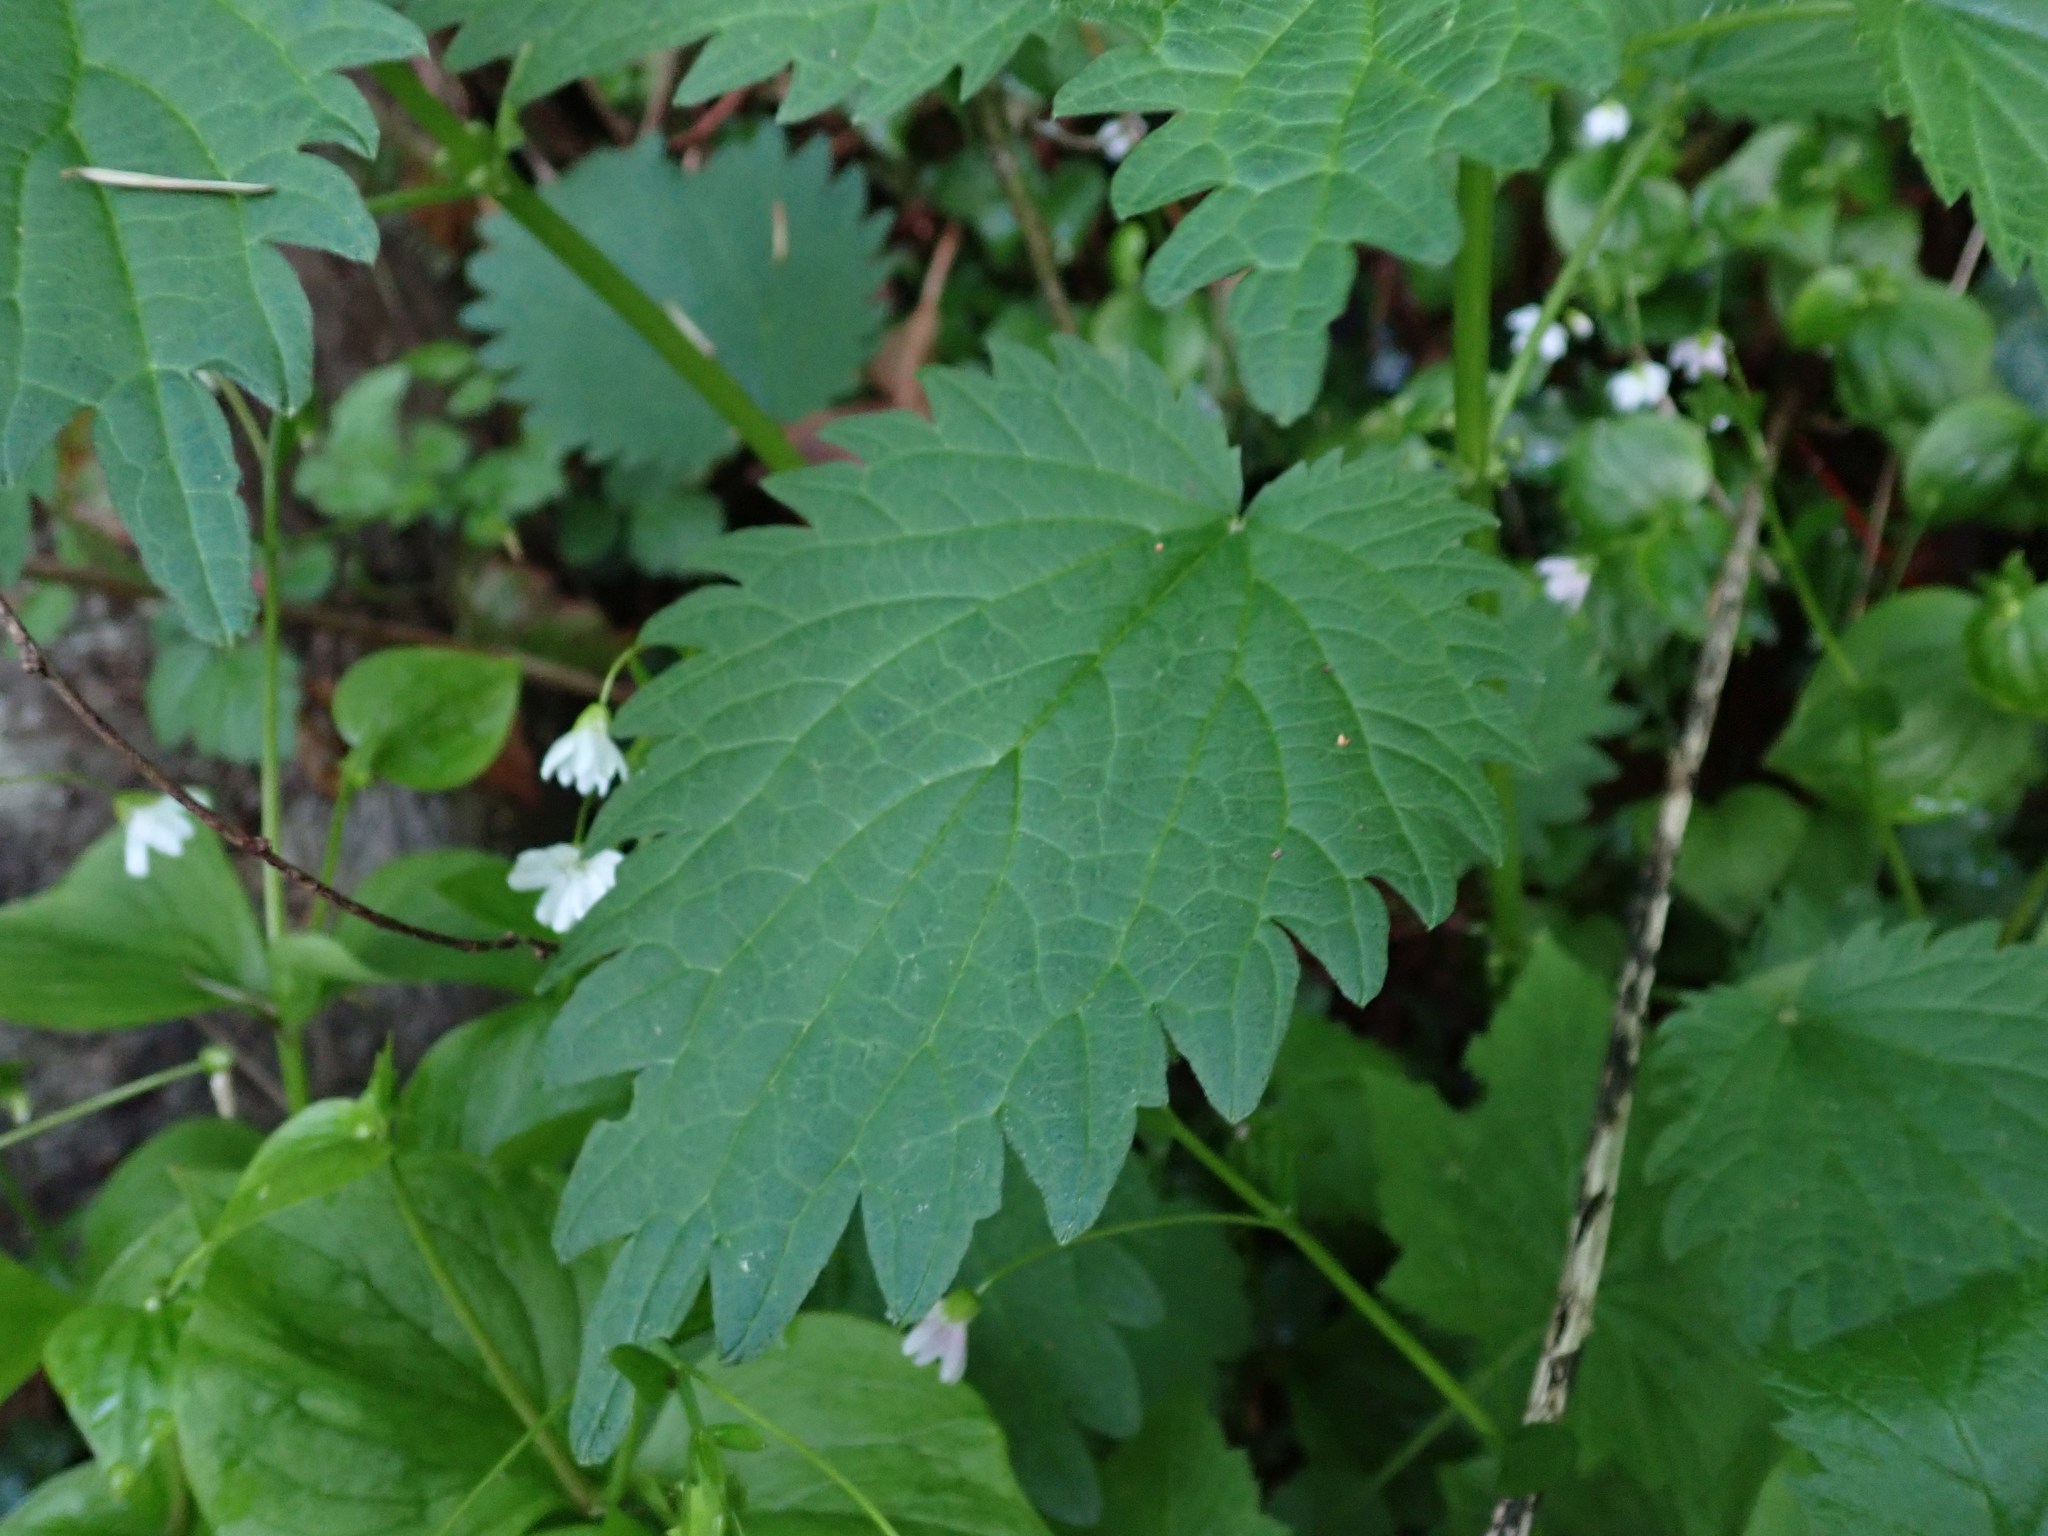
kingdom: Plantae
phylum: Tracheophyta
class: Magnoliopsida
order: Rosales
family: Urticaceae
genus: Urtica
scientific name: Urtica dioica
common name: Common nettle
